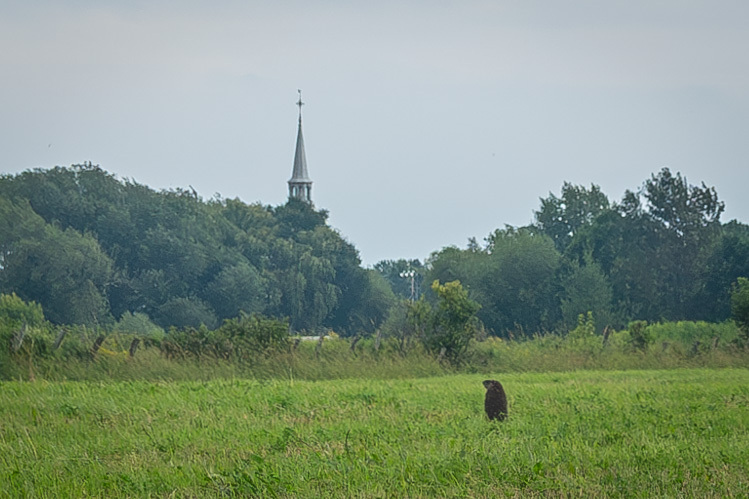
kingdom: Animalia
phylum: Chordata
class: Mammalia
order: Rodentia
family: Sciuridae
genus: Marmota
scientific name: Marmota monax
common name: Groundhog
